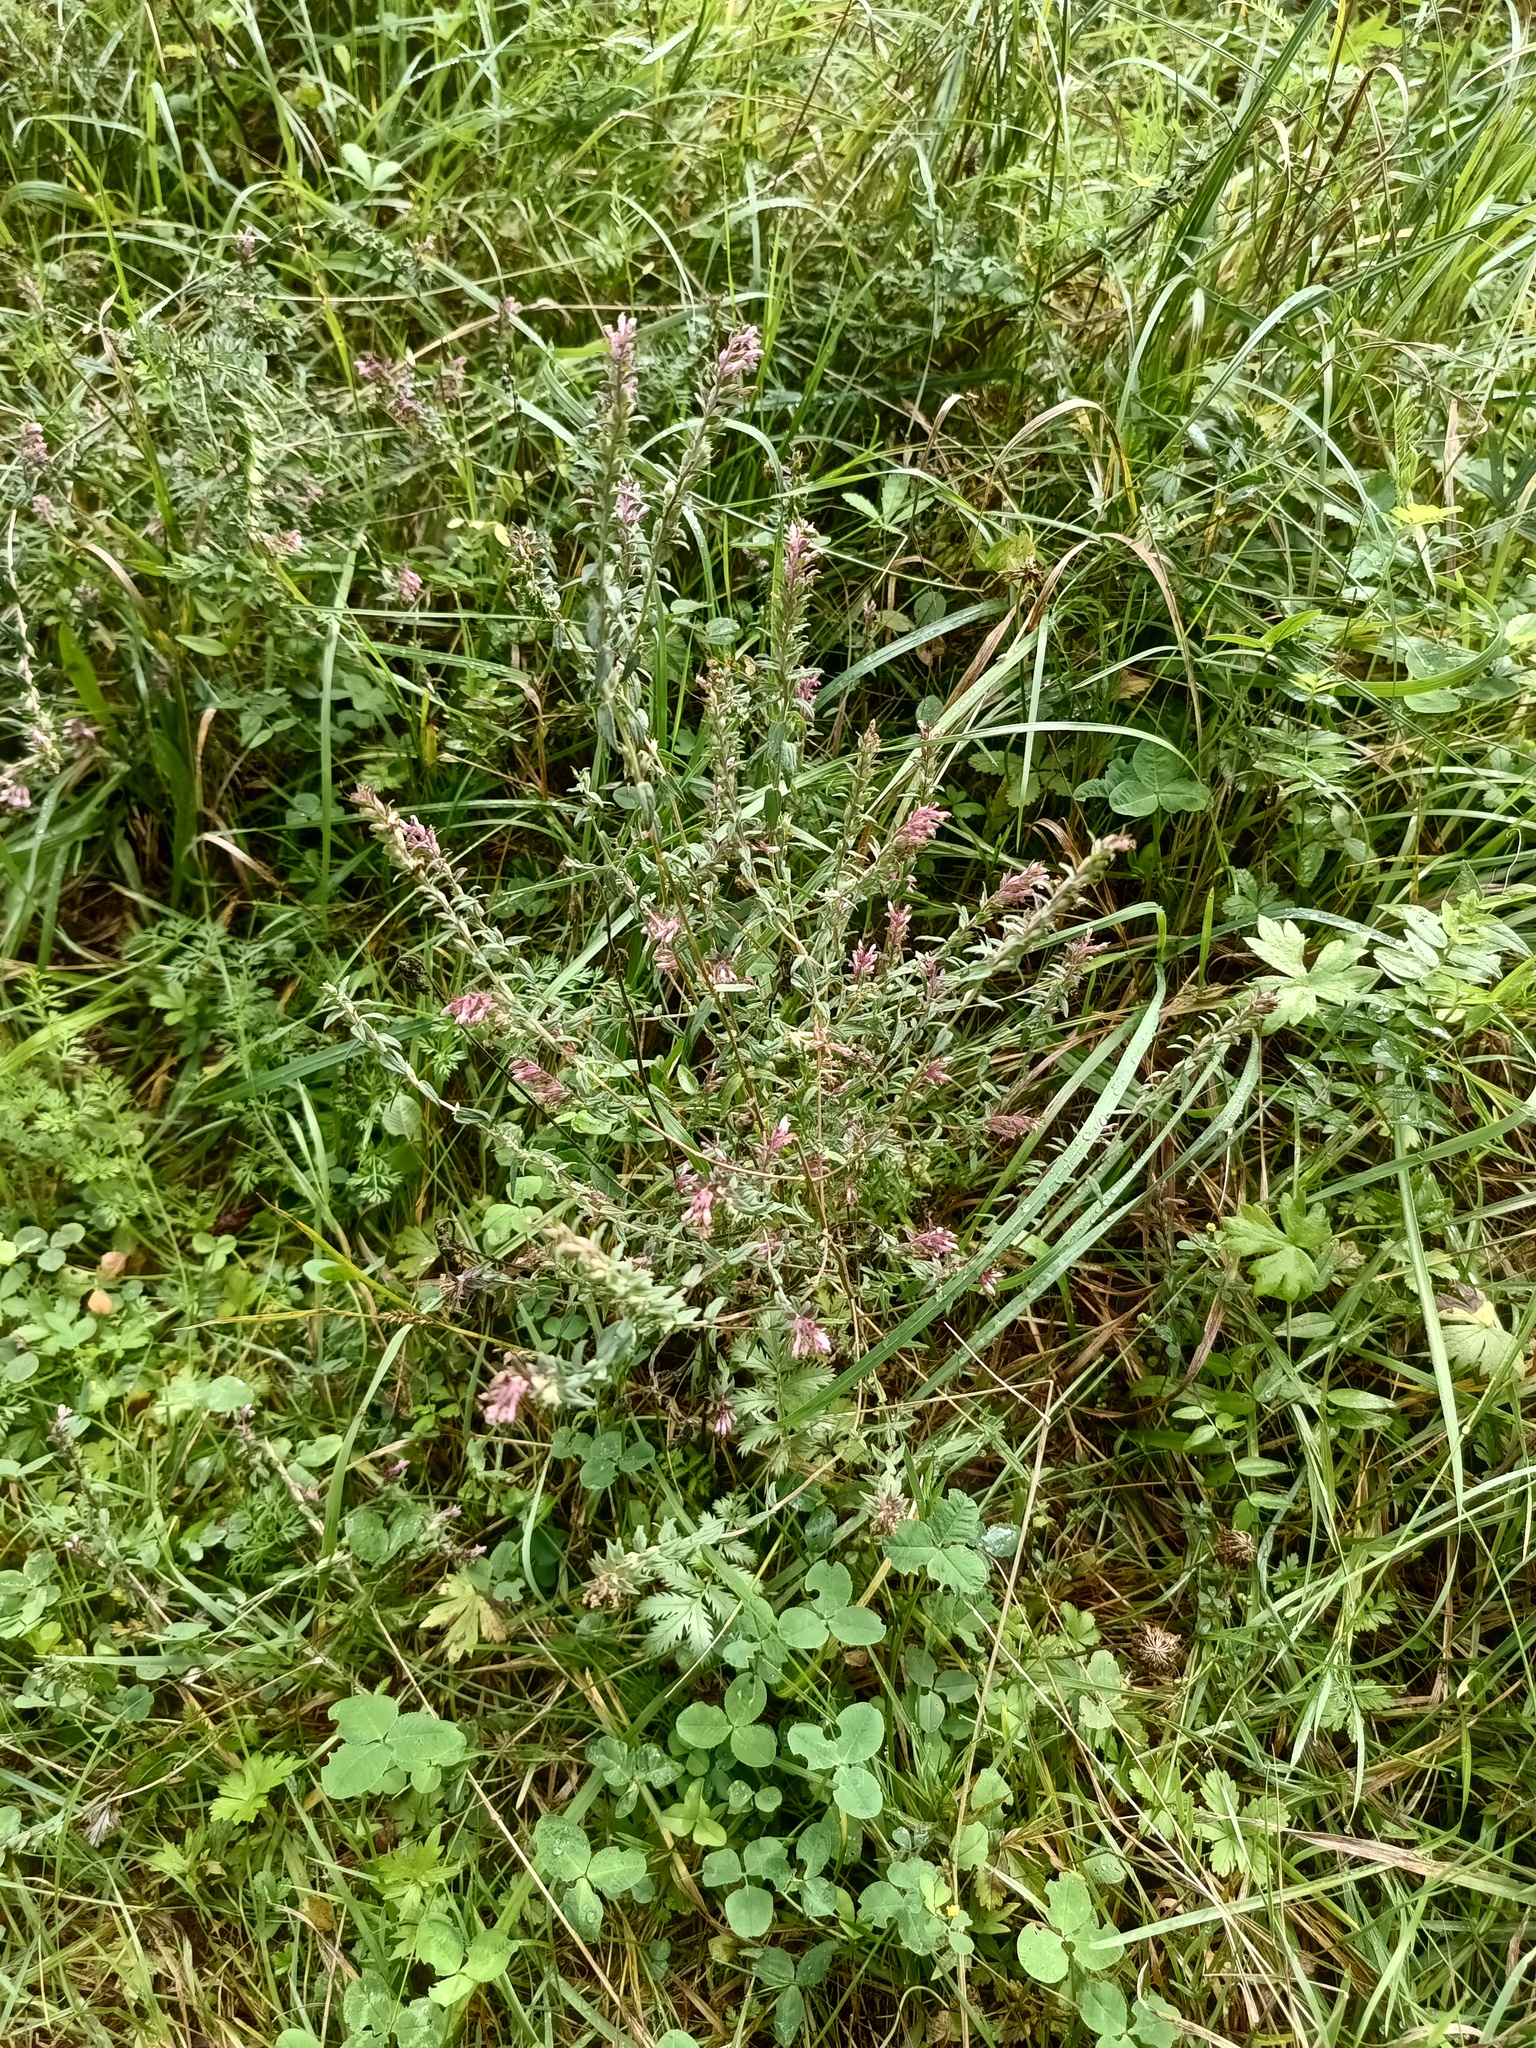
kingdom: Plantae
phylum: Tracheophyta
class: Magnoliopsida
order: Lamiales
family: Orobanchaceae
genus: Odontites
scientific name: Odontites vulgaris
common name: Broomrape
